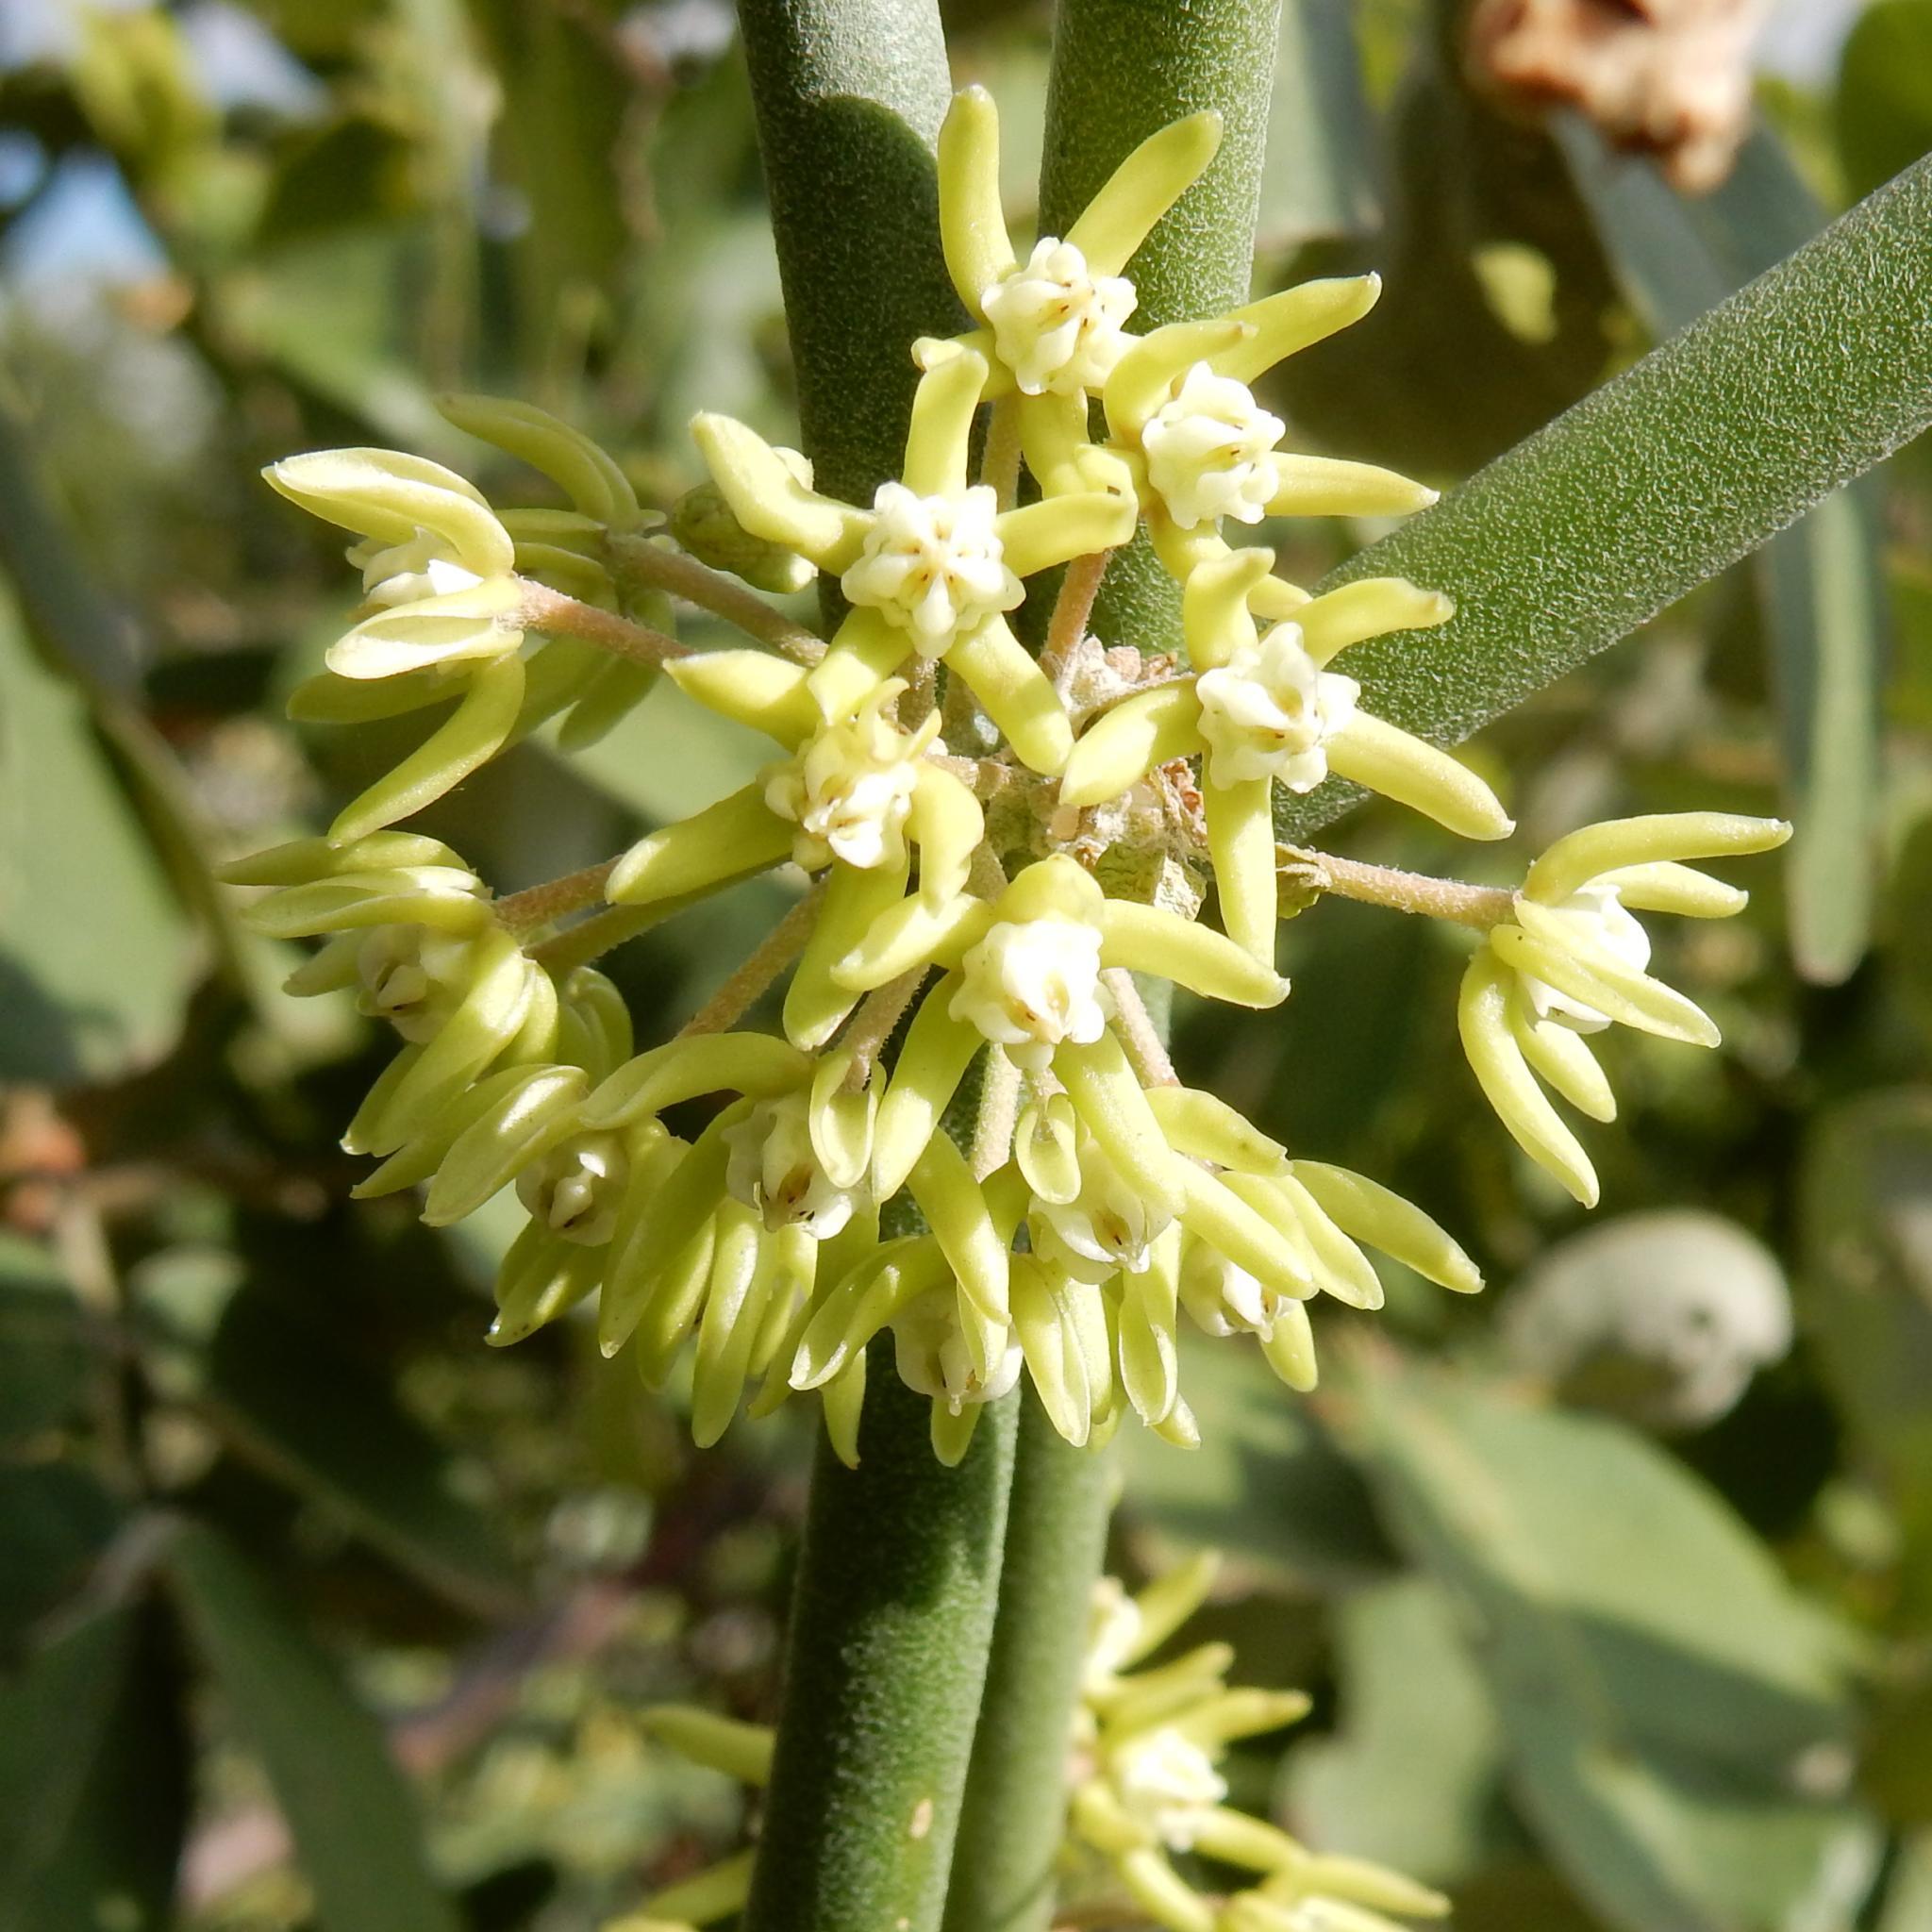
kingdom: Plantae
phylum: Tracheophyta
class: Magnoliopsida
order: Gentianales
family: Apocynaceae
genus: Cynanchum
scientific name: Cynanchum viminale
